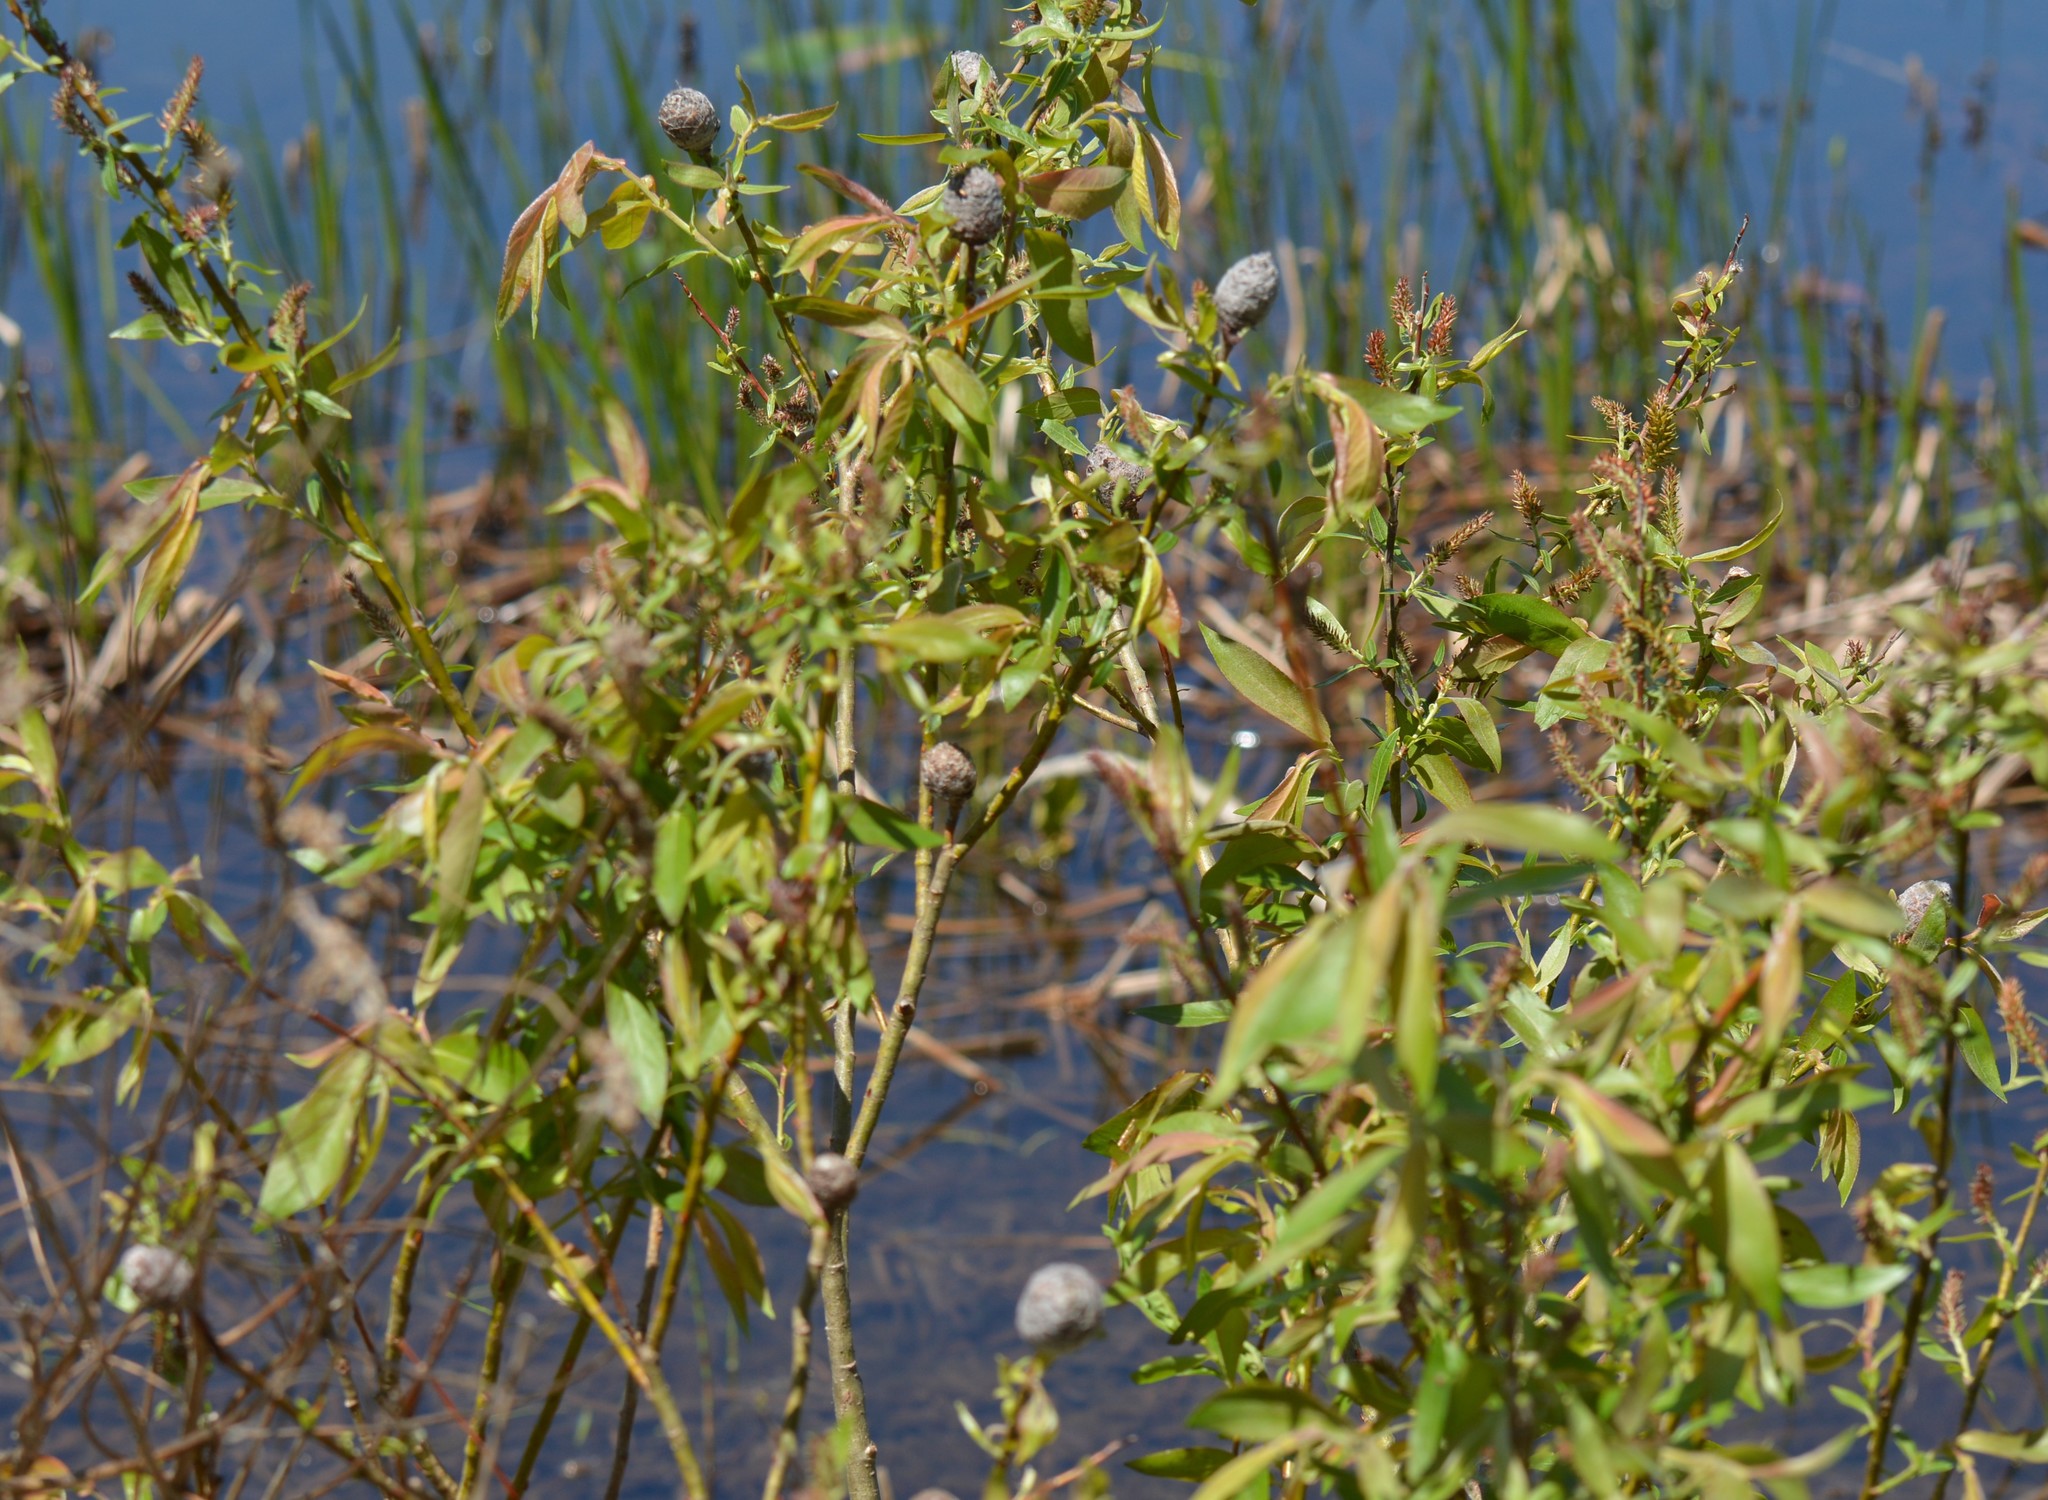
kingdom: Animalia
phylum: Arthropoda
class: Insecta
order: Diptera
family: Cecidomyiidae
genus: Rabdophaga
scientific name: Rabdophaga strobiloides
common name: Willow pinecone gall midge
